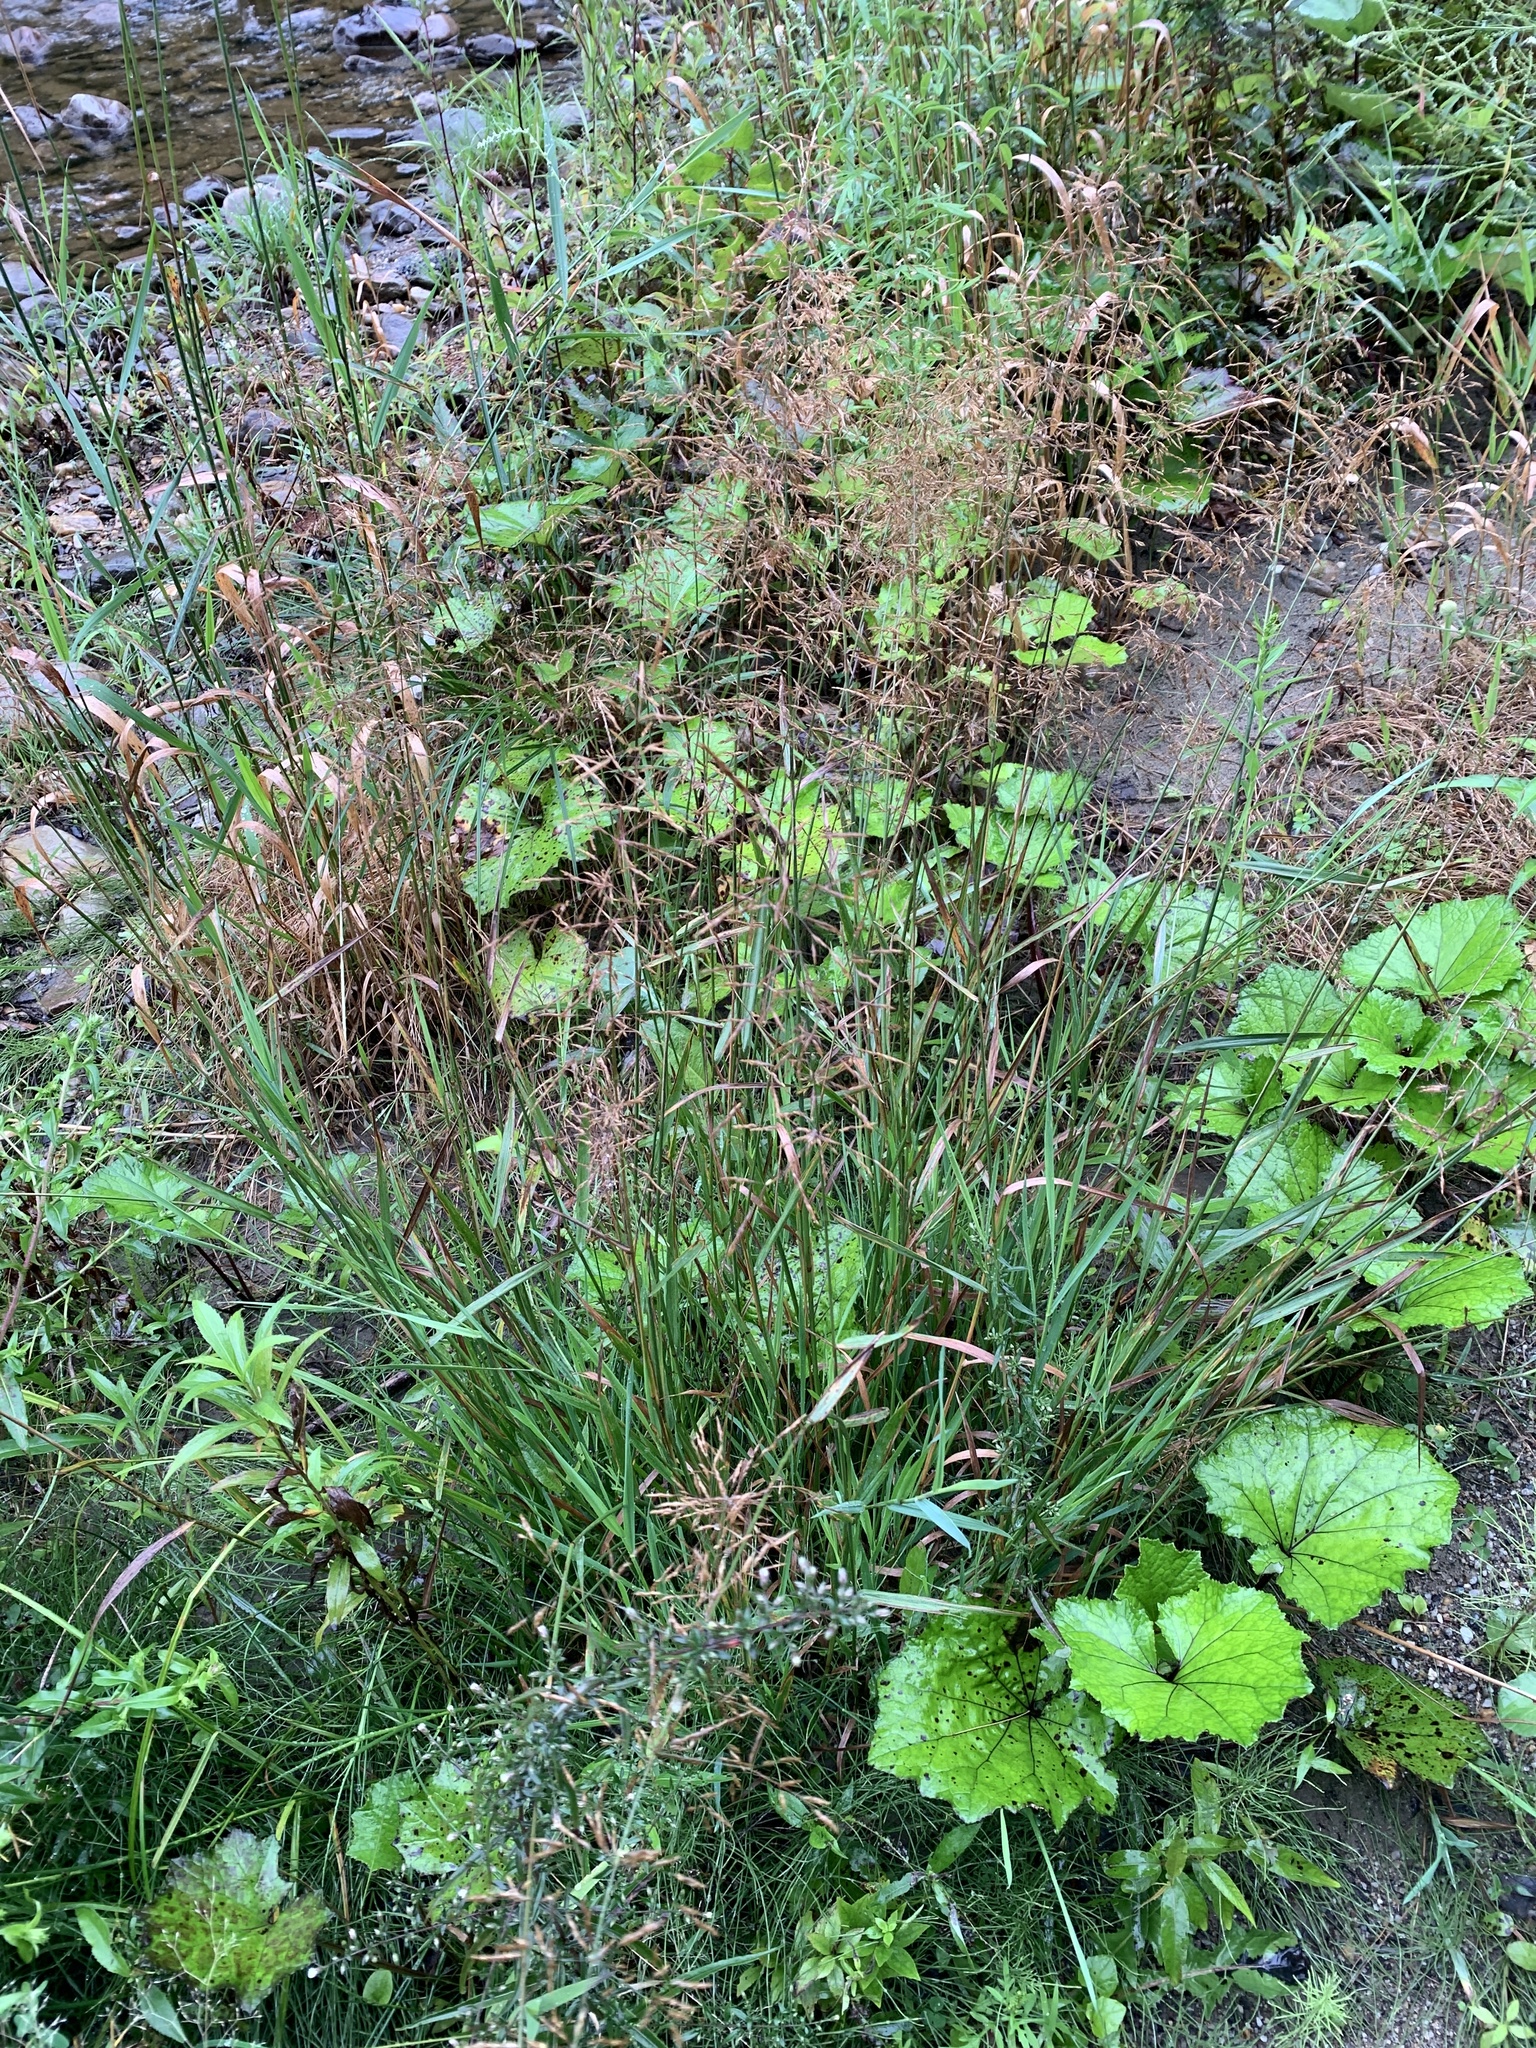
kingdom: Plantae
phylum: Tracheophyta
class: Magnoliopsida
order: Asterales
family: Asteraceae
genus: Tussilago
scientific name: Tussilago farfara
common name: Coltsfoot
